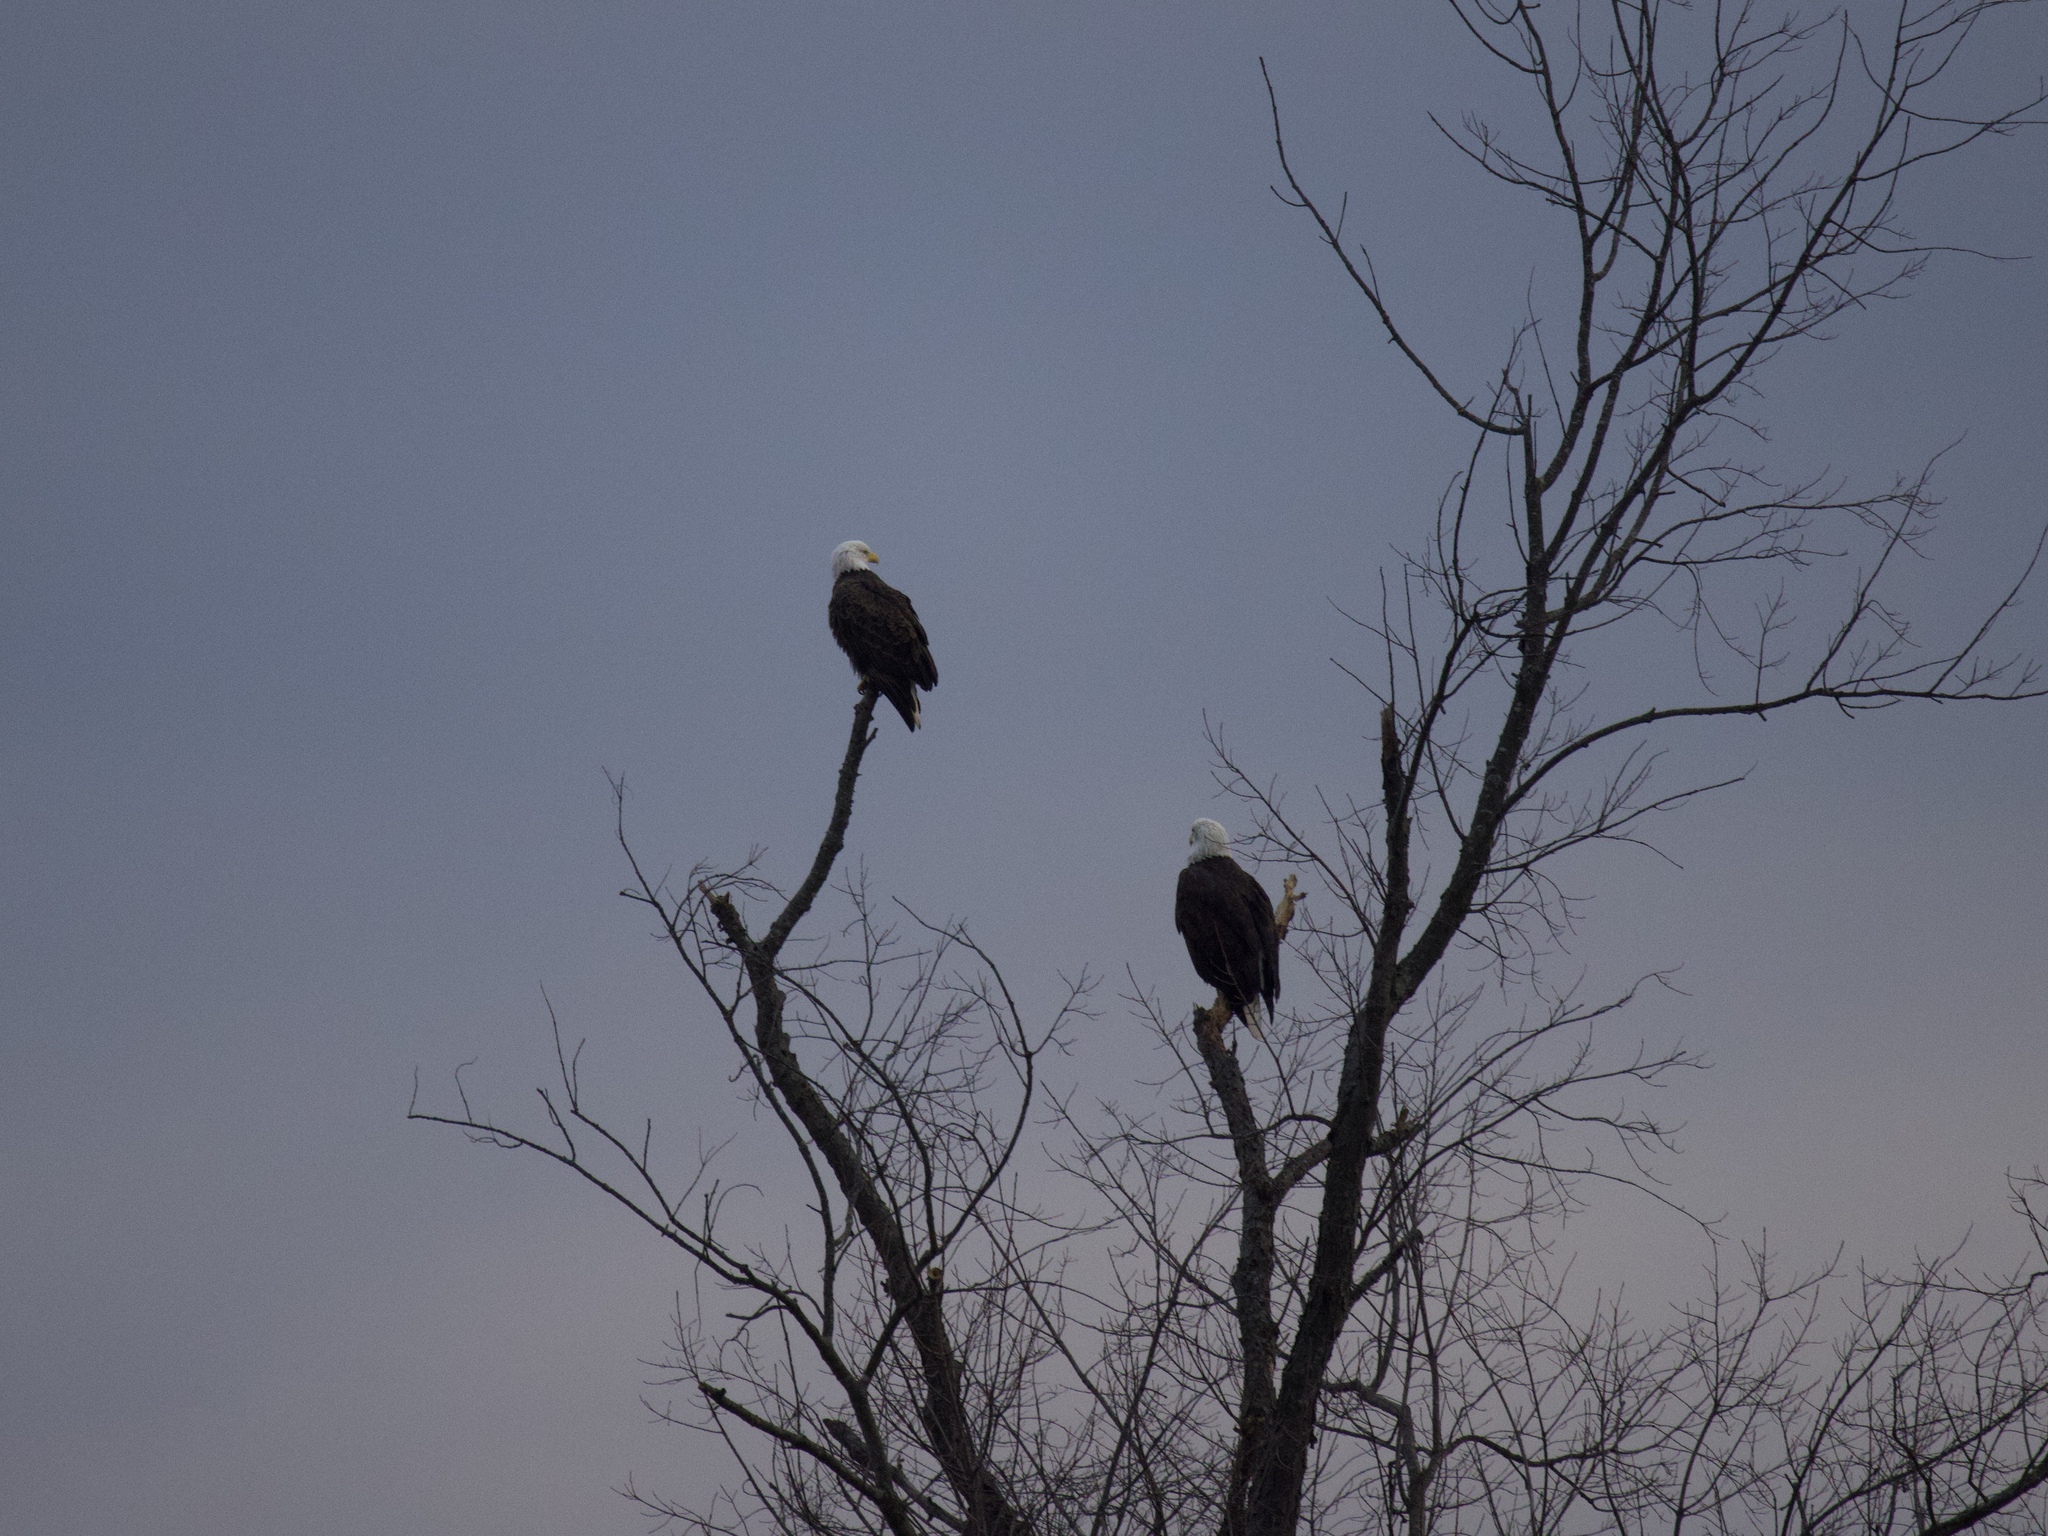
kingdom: Animalia
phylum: Chordata
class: Aves
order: Accipitriformes
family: Accipitridae
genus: Haliaeetus
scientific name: Haliaeetus leucocephalus
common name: Bald eagle
